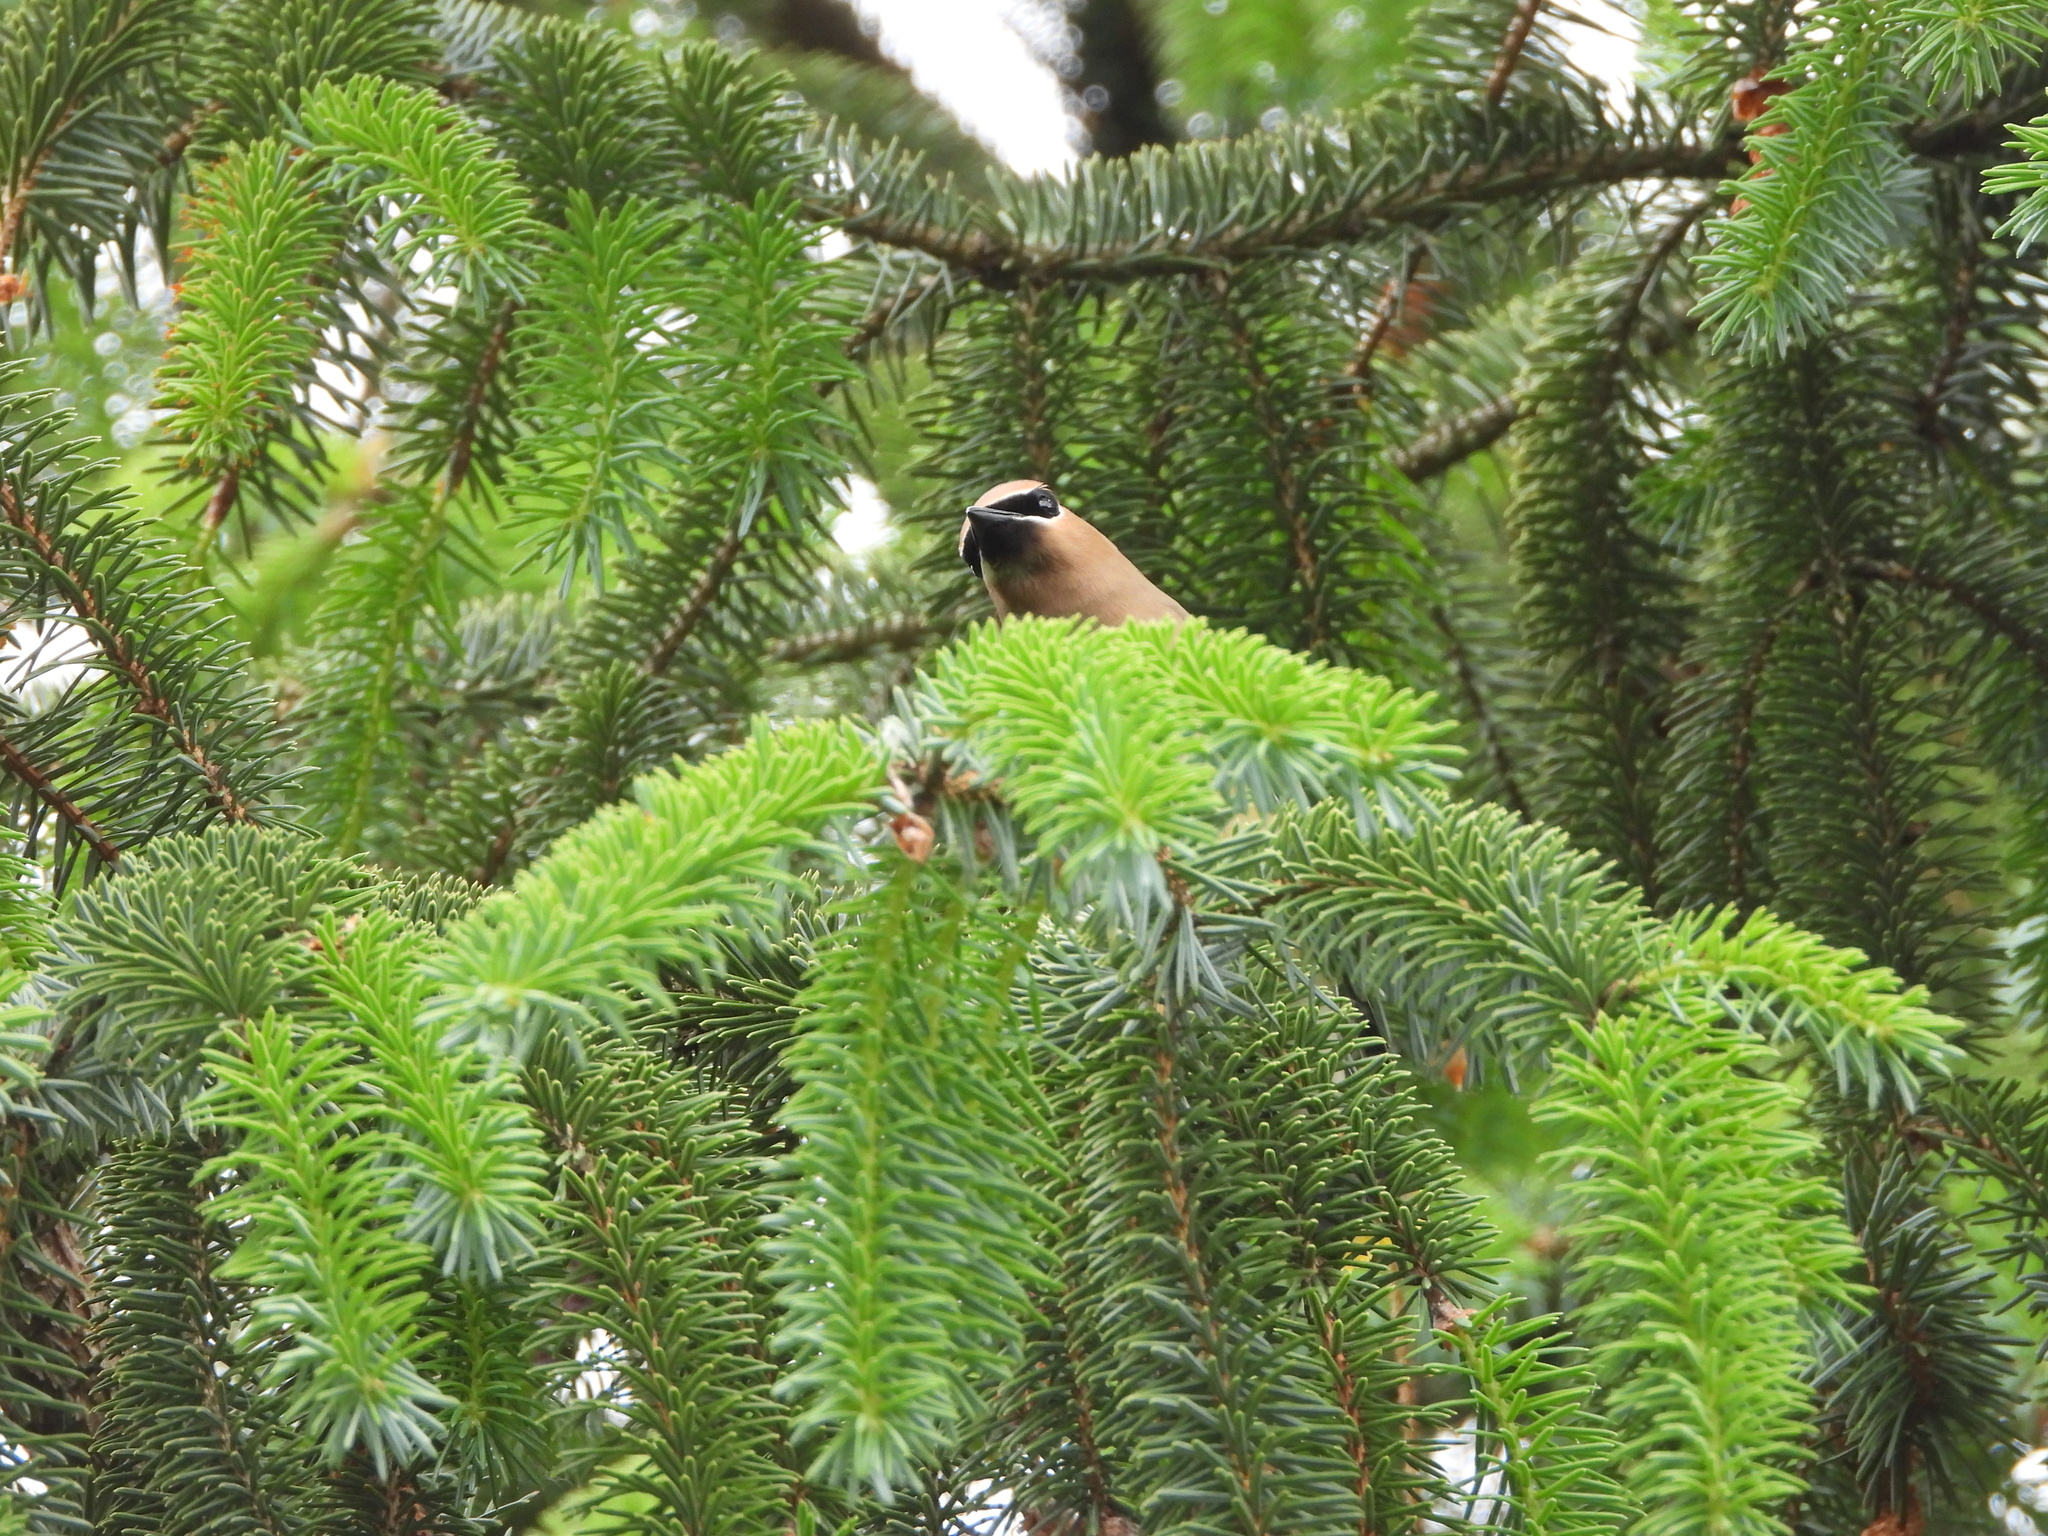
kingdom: Animalia
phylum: Chordata
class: Aves
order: Passeriformes
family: Bombycillidae
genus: Bombycilla
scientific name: Bombycilla cedrorum
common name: Cedar waxwing
